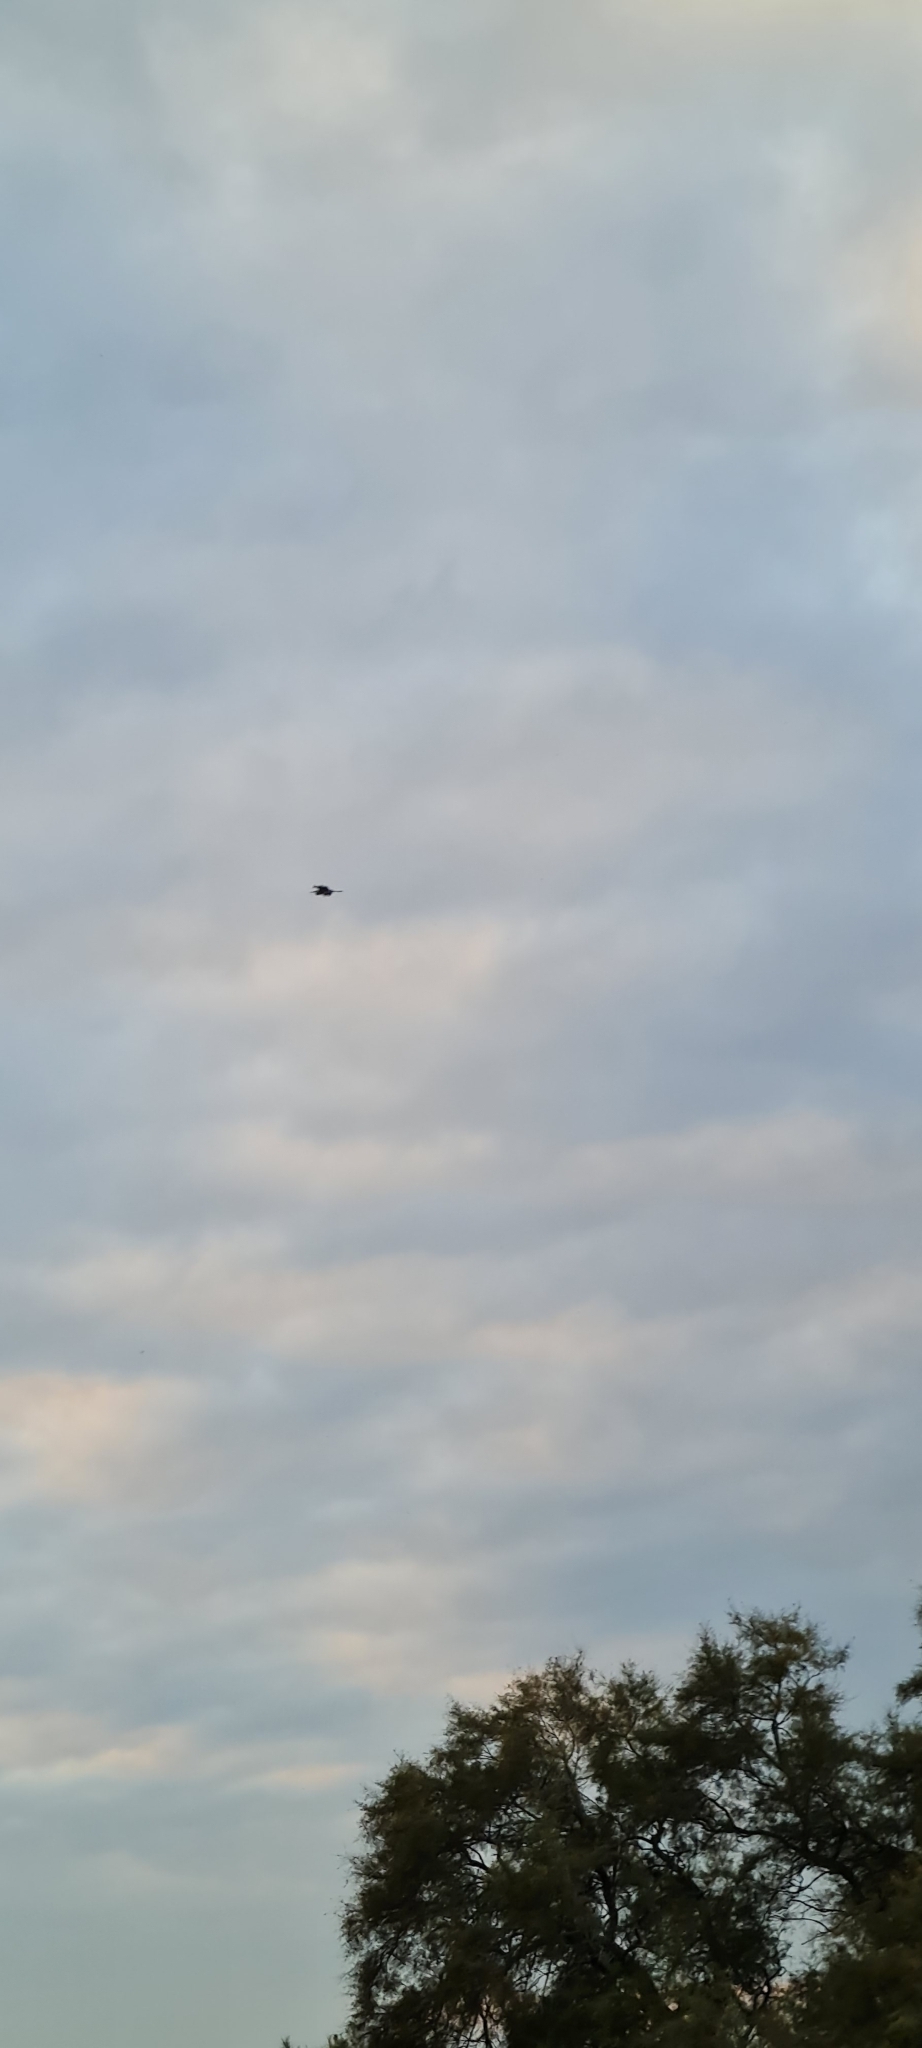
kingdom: Animalia
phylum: Chordata
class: Aves
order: Pelecaniformes
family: Ardeidae
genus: Ardea
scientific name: Ardea cinerea
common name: Grey heron
